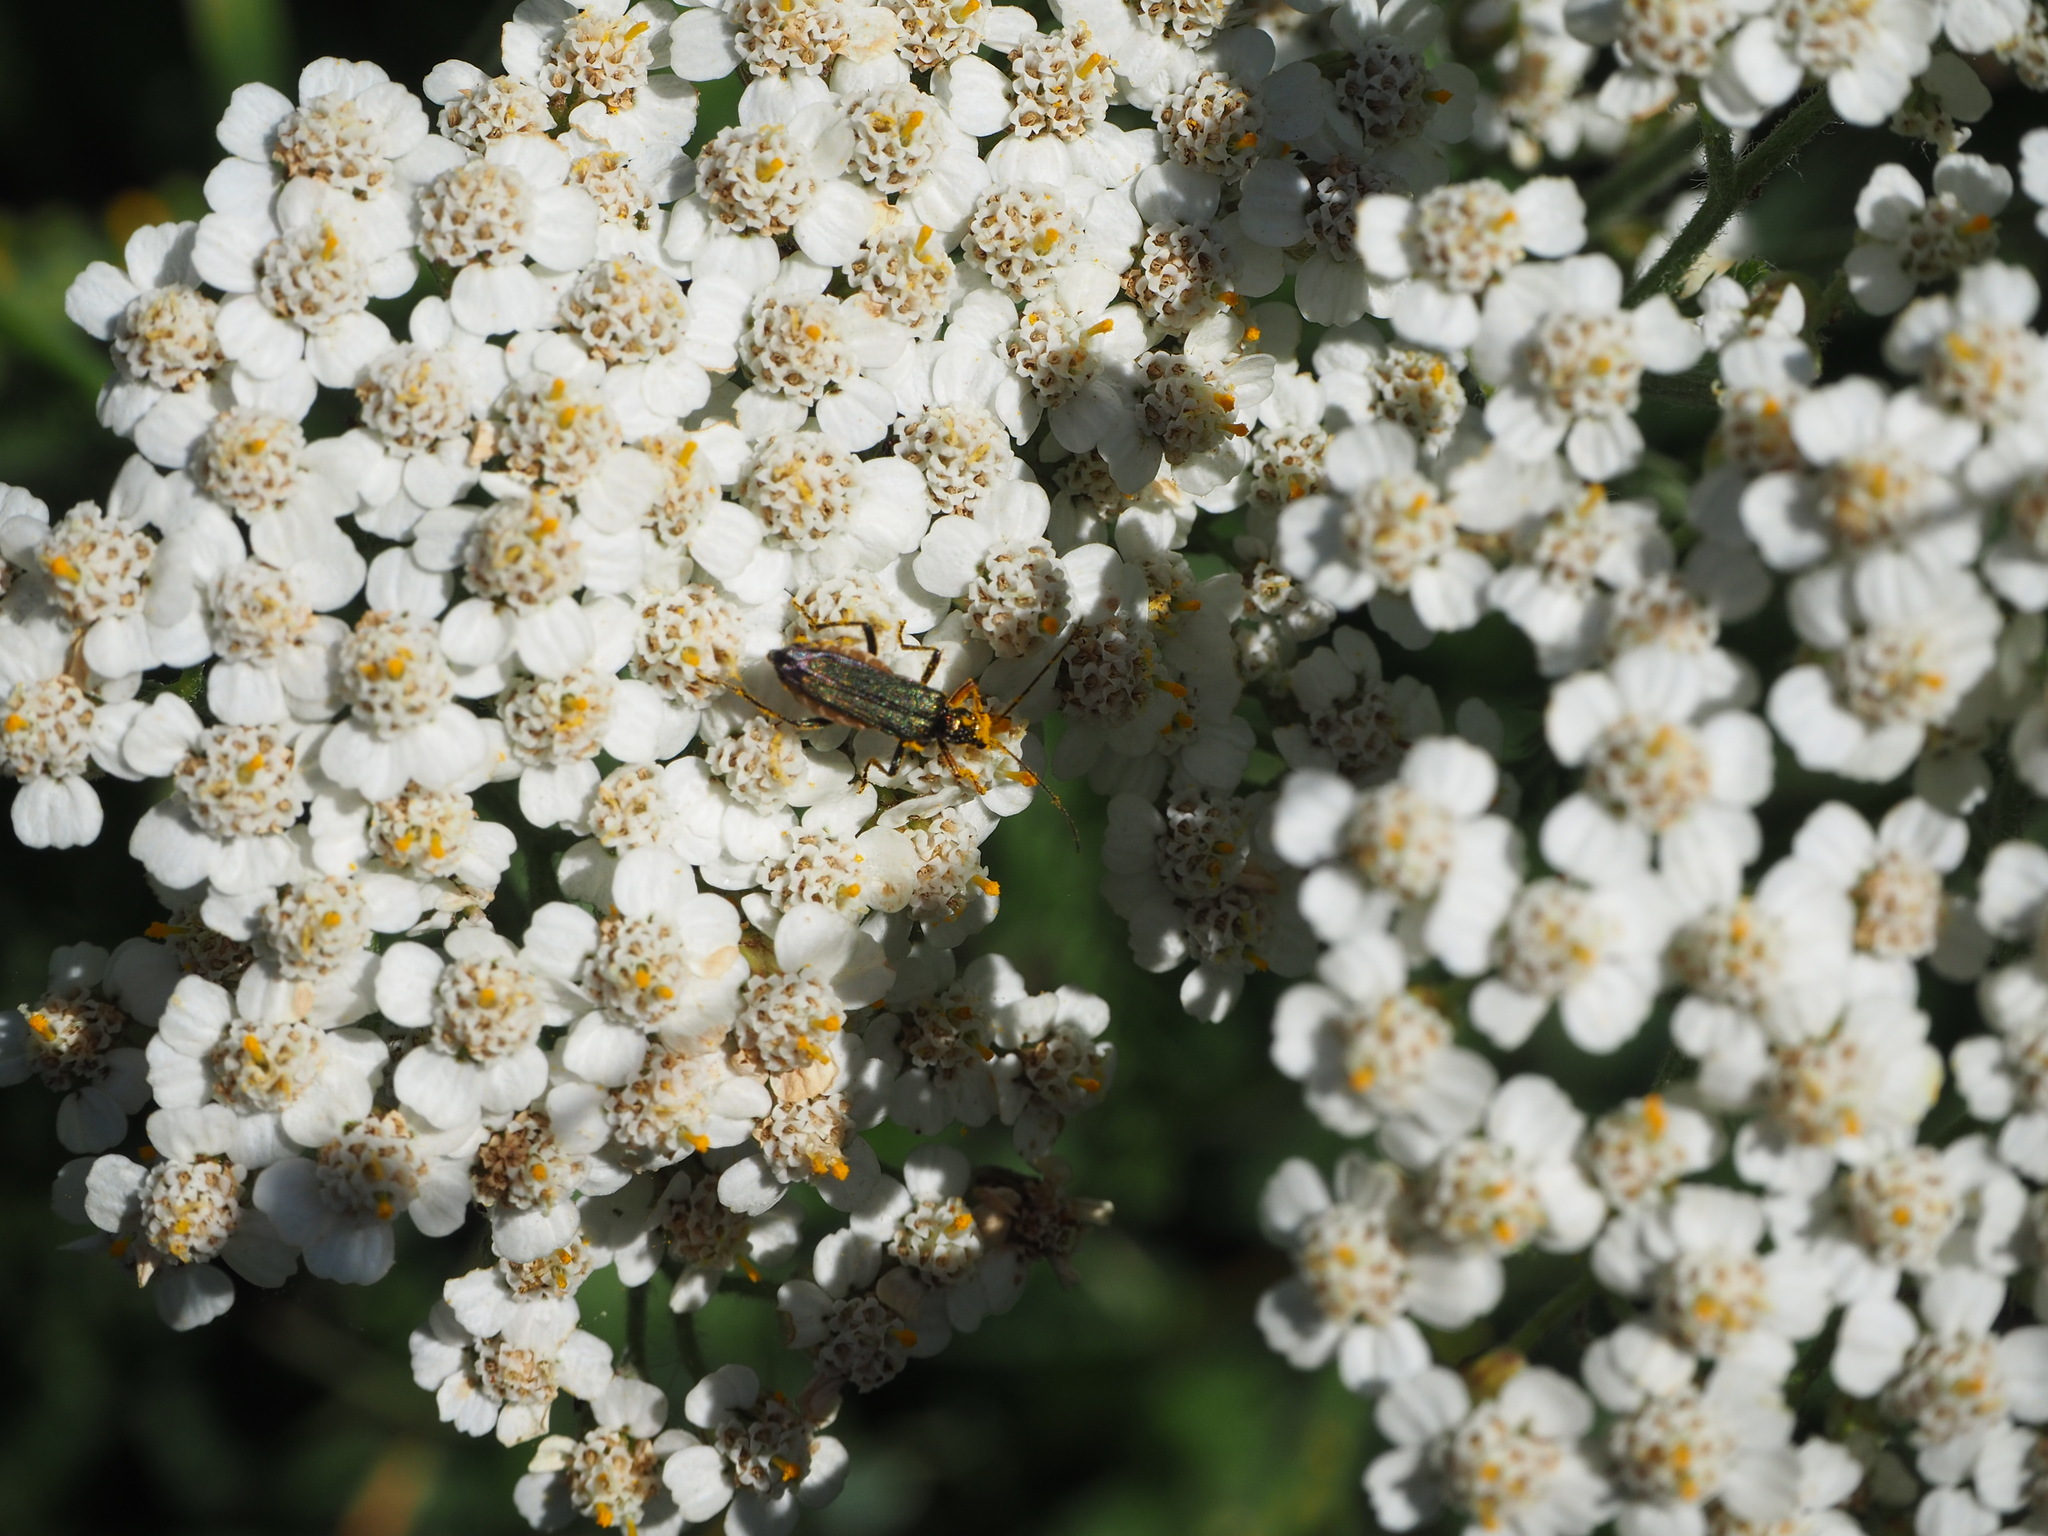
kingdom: Animalia
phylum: Arthropoda
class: Insecta
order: Coleoptera
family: Oedemeridae
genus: Oedemera
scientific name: Oedemera flavipes
